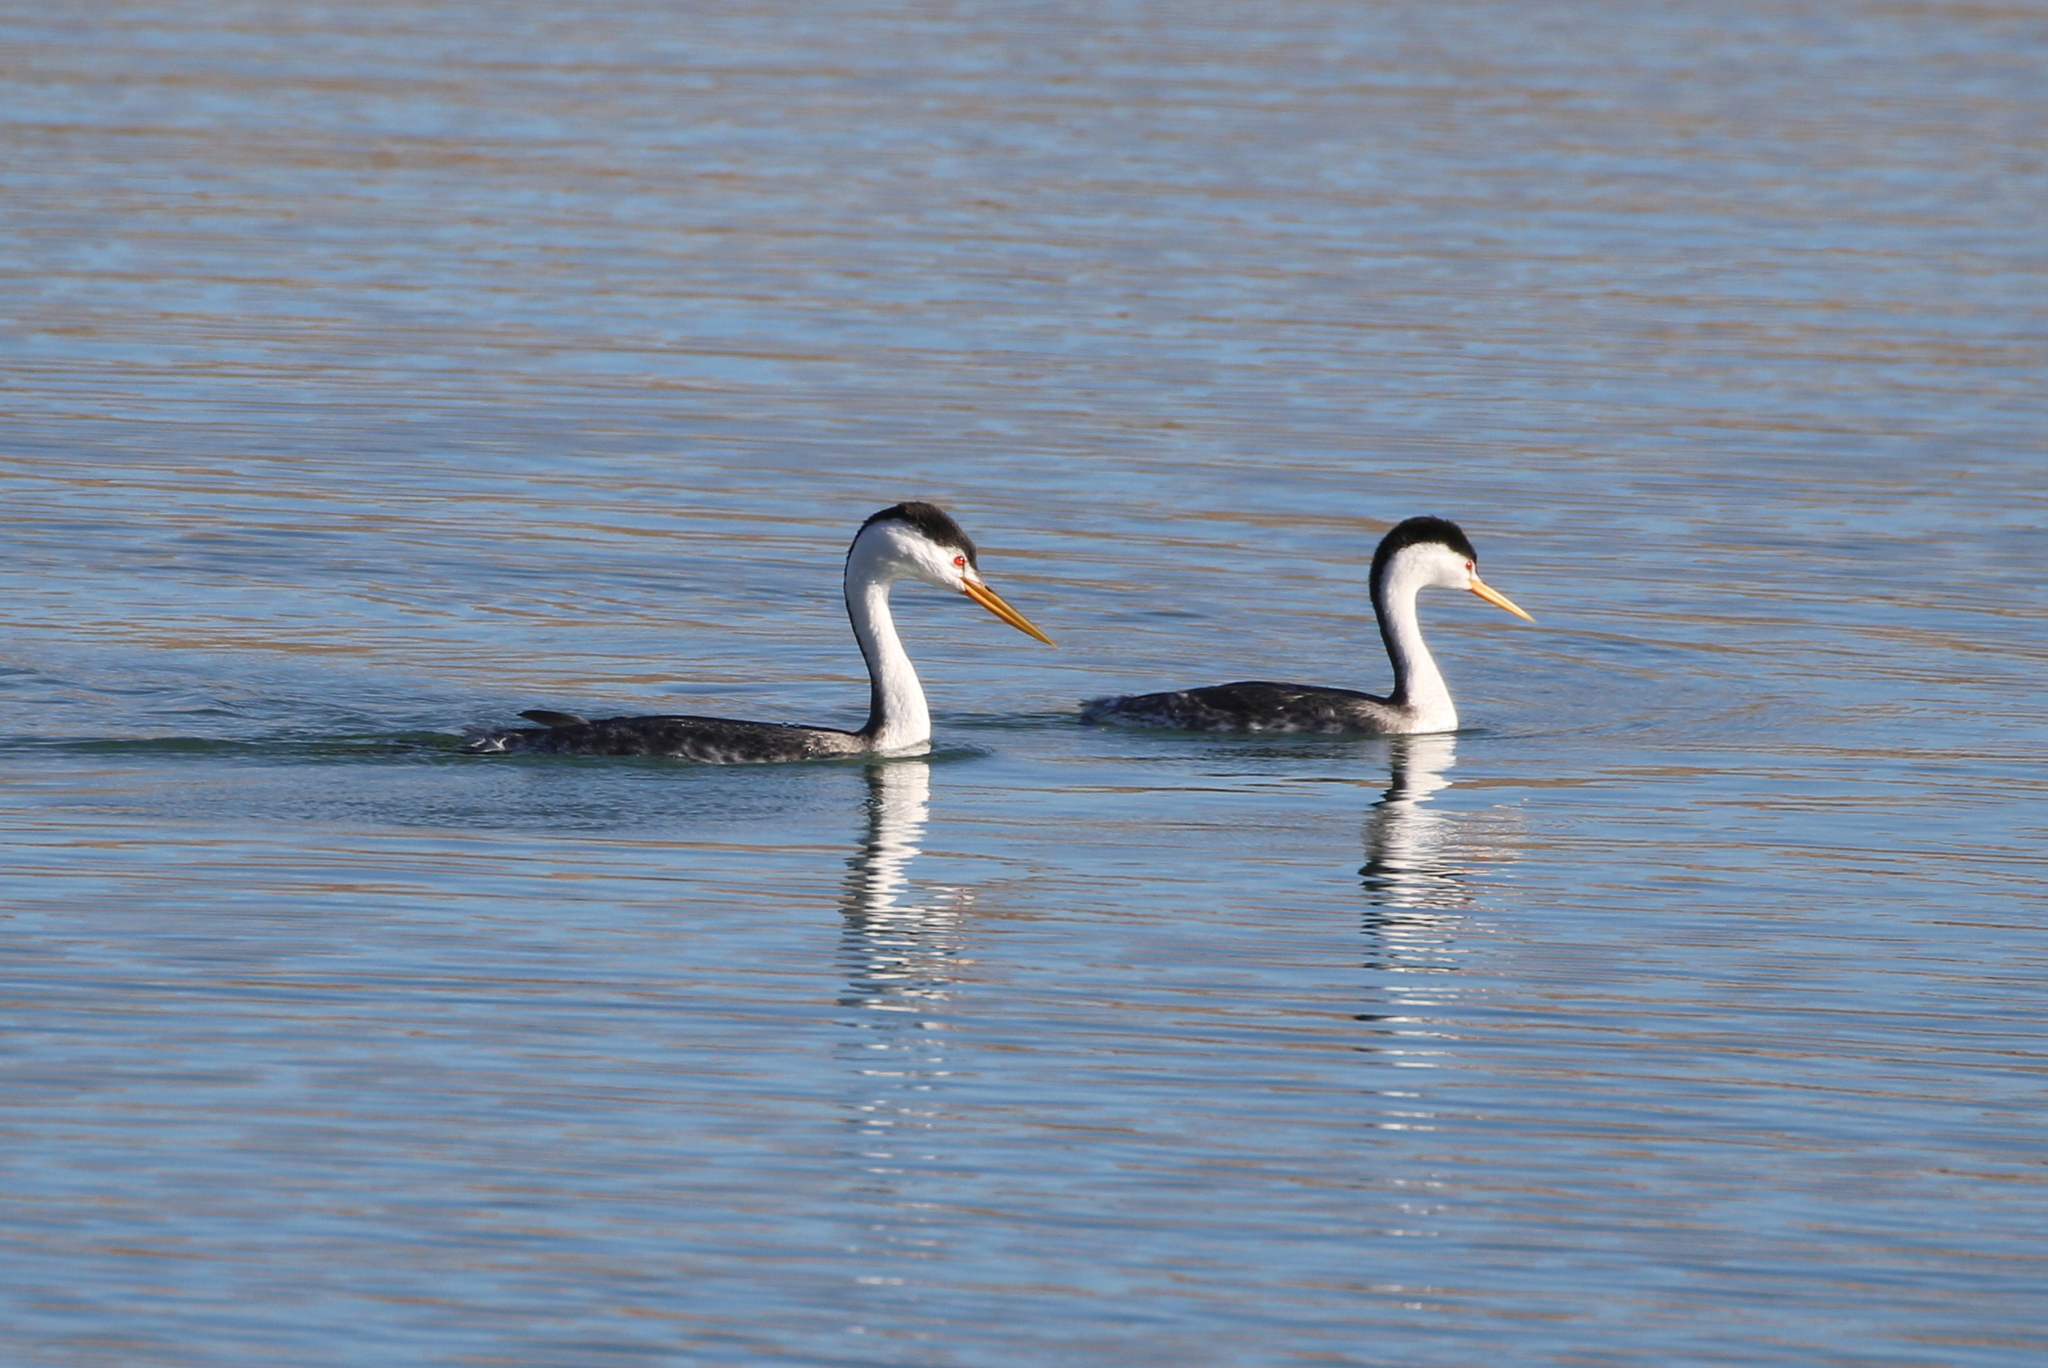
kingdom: Animalia
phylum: Chordata
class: Aves
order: Podicipediformes
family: Podicipedidae
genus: Aechmophorus
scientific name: Aechmophorus clarkii
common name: Clark's grebe
